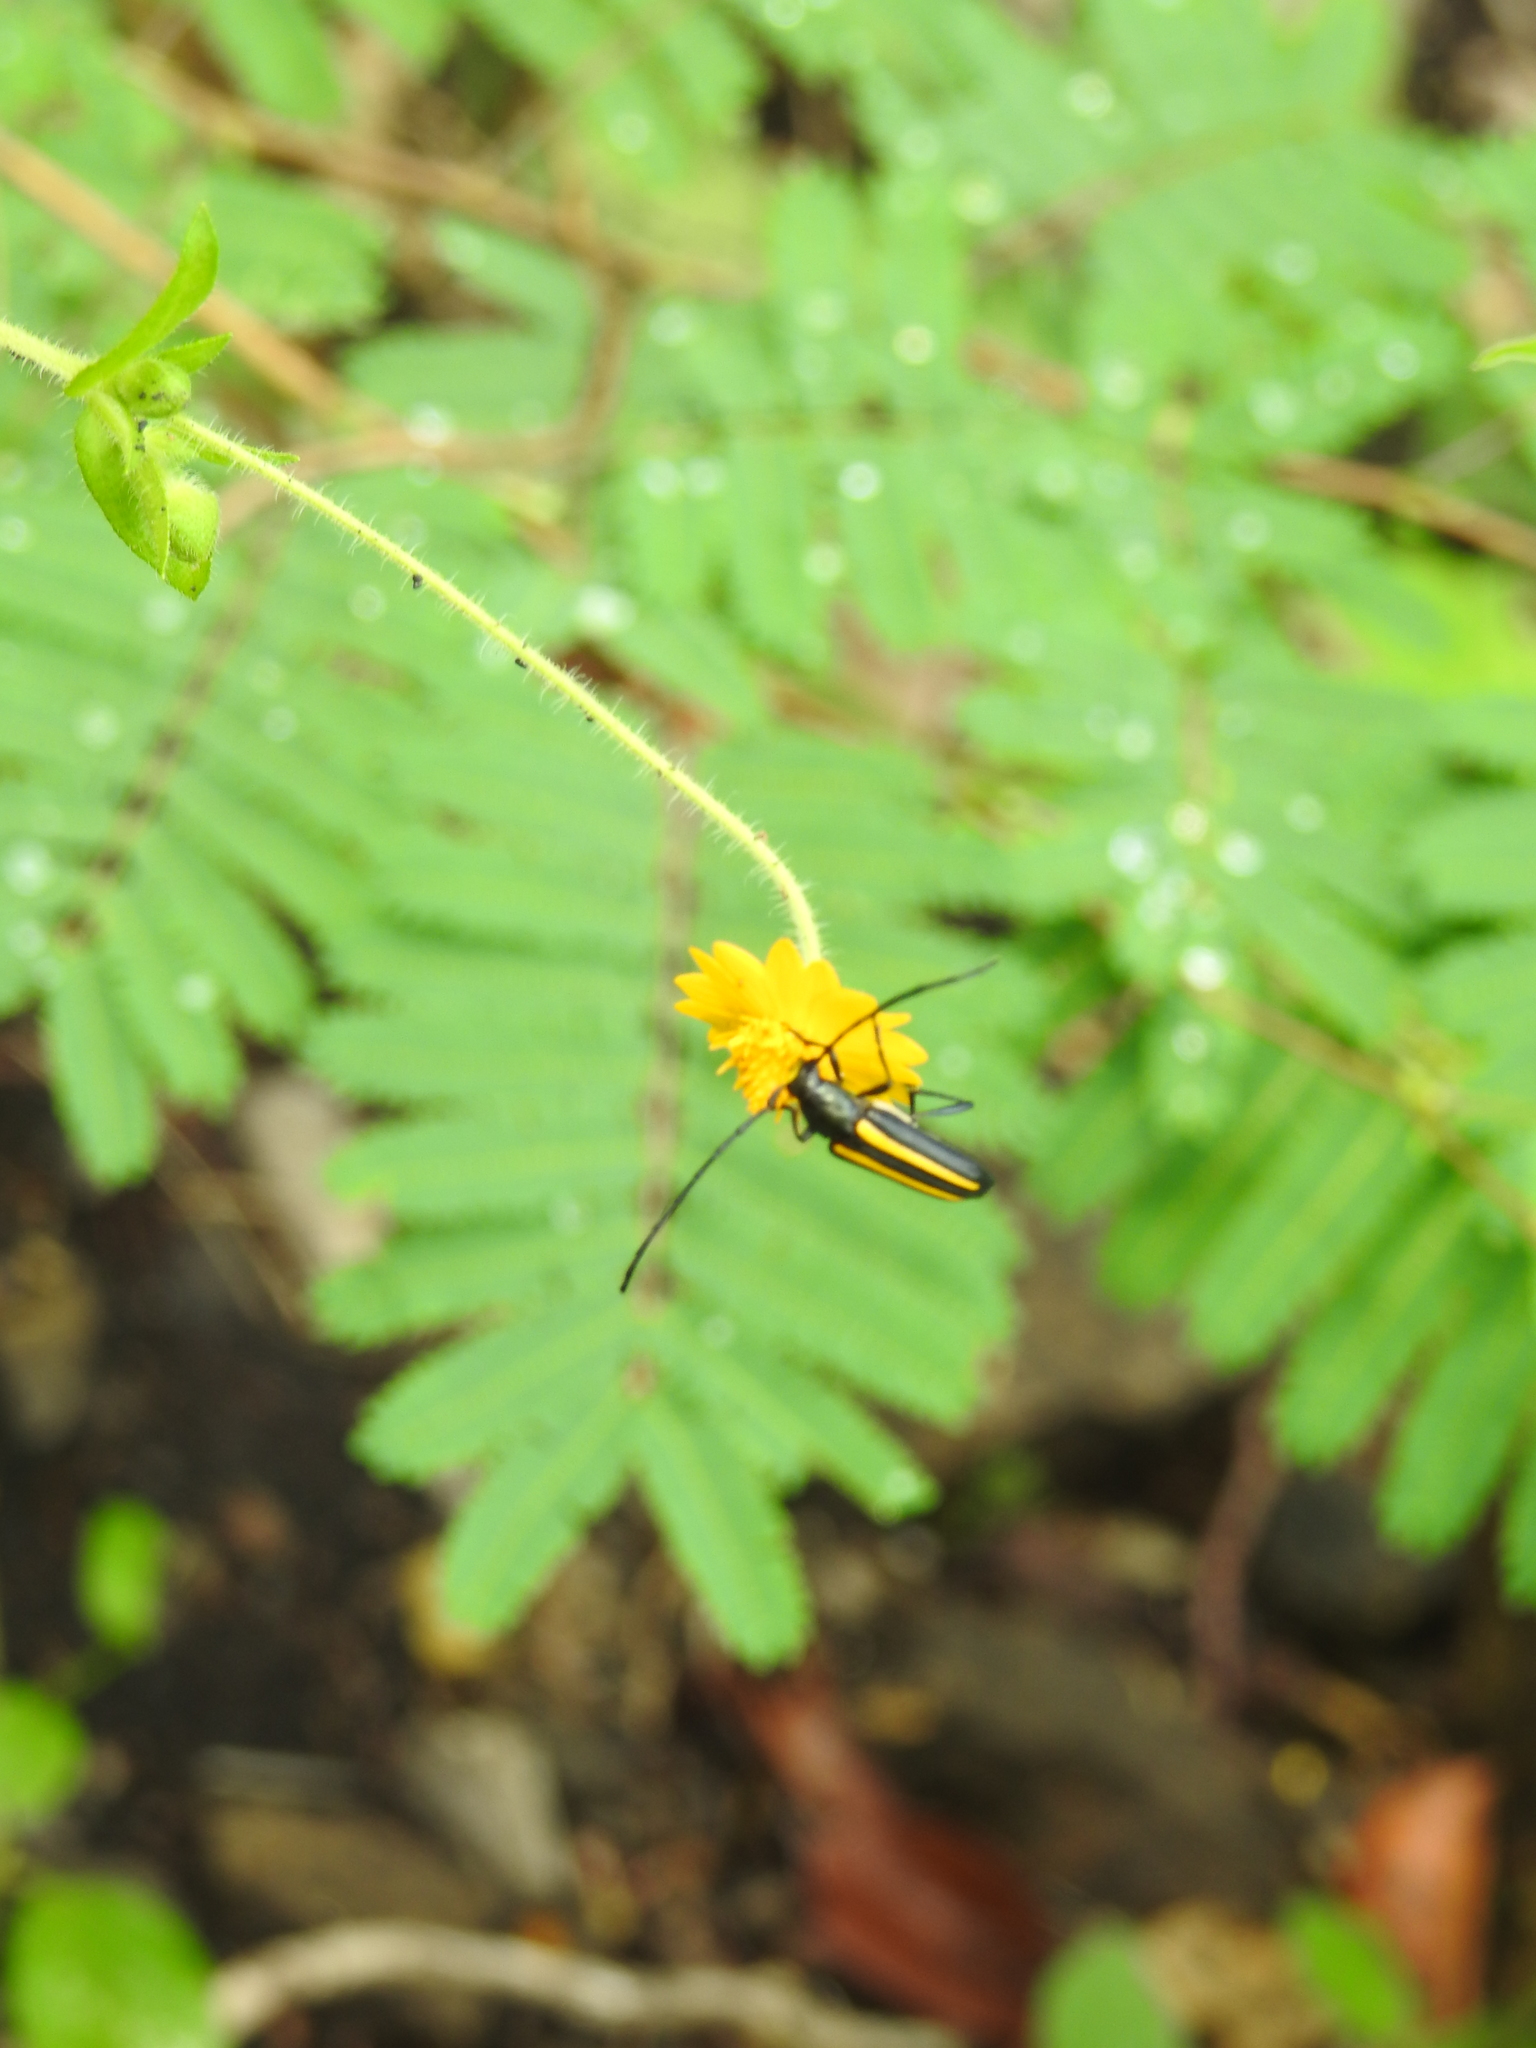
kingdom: Animalia
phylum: Arthropoda
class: Insecta
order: Coleoptera
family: Cerambycidae
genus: Lophalia
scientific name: Lophalia cyanicollis
